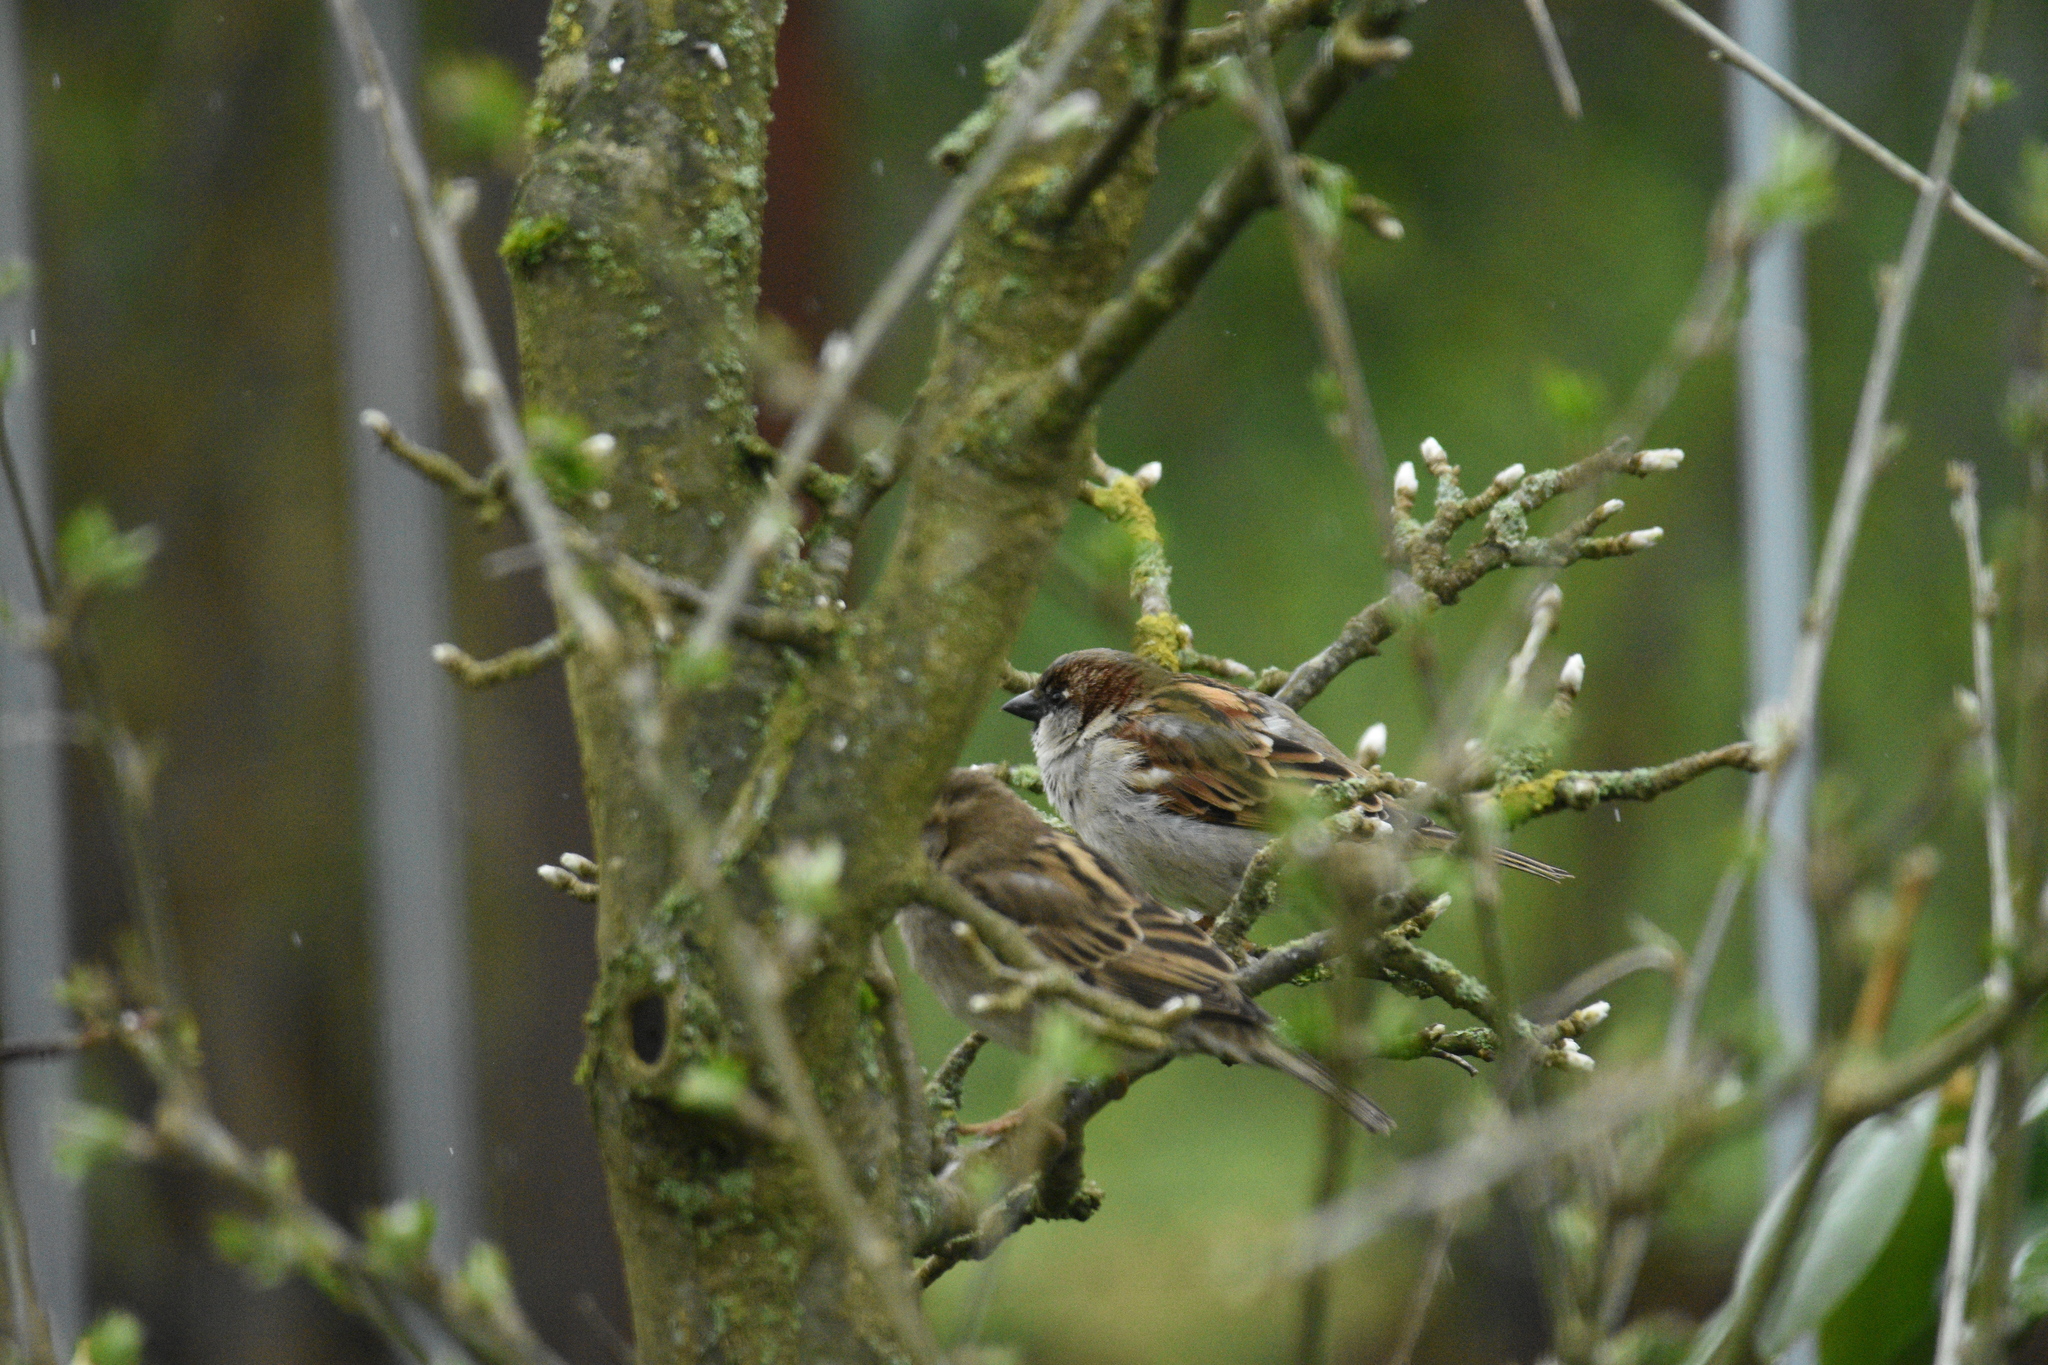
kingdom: Animalia
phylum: Chordata
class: Aves
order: Passeriformes
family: Passeridae
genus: Passer
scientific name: Passer domesticus
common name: House sparrow
